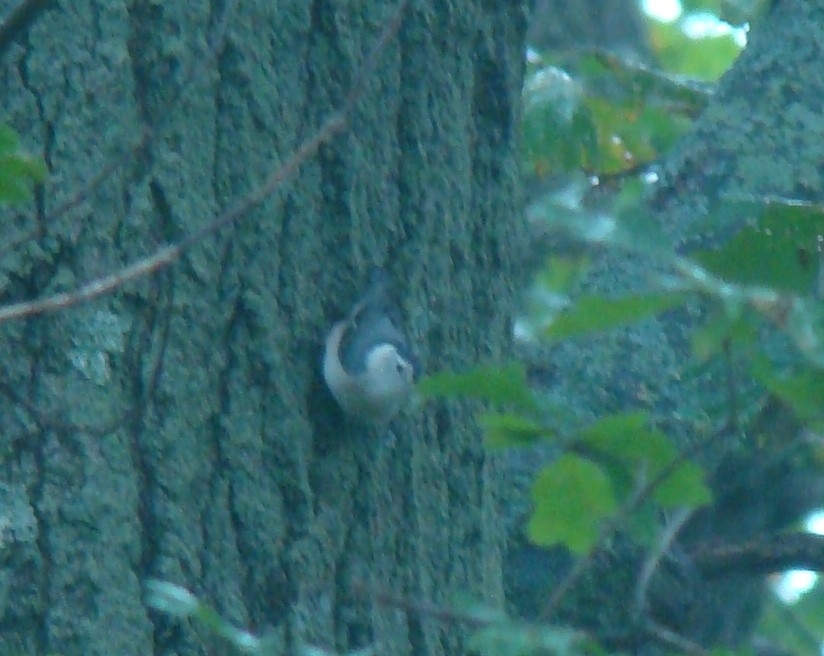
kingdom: Animalia
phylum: Chordata
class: Aves
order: Passeriformes
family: Sittidae
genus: Sitta
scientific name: Sitta carolinensis
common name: White-breasted nuthatch
